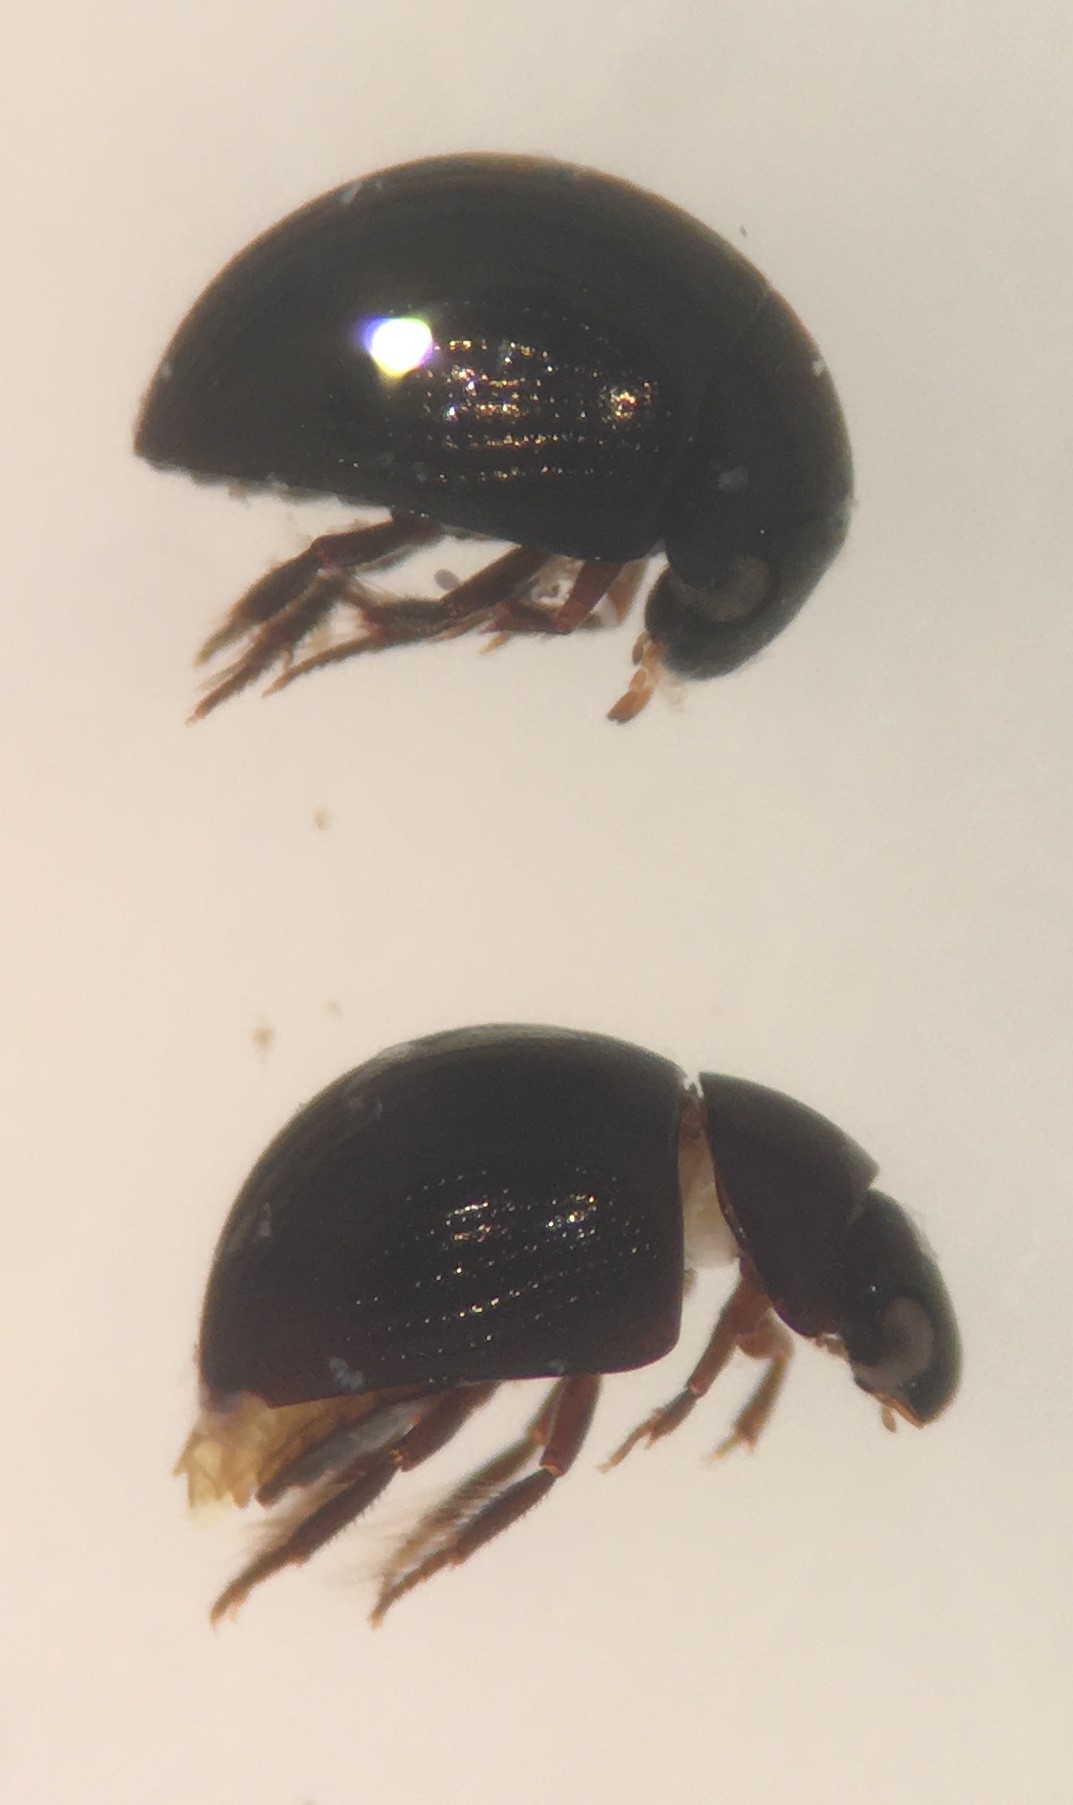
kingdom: Animalia
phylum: Arthropoda
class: Insecta
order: Coleoptera
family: Hydrophilidae
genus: Derallus
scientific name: Derallus altus
